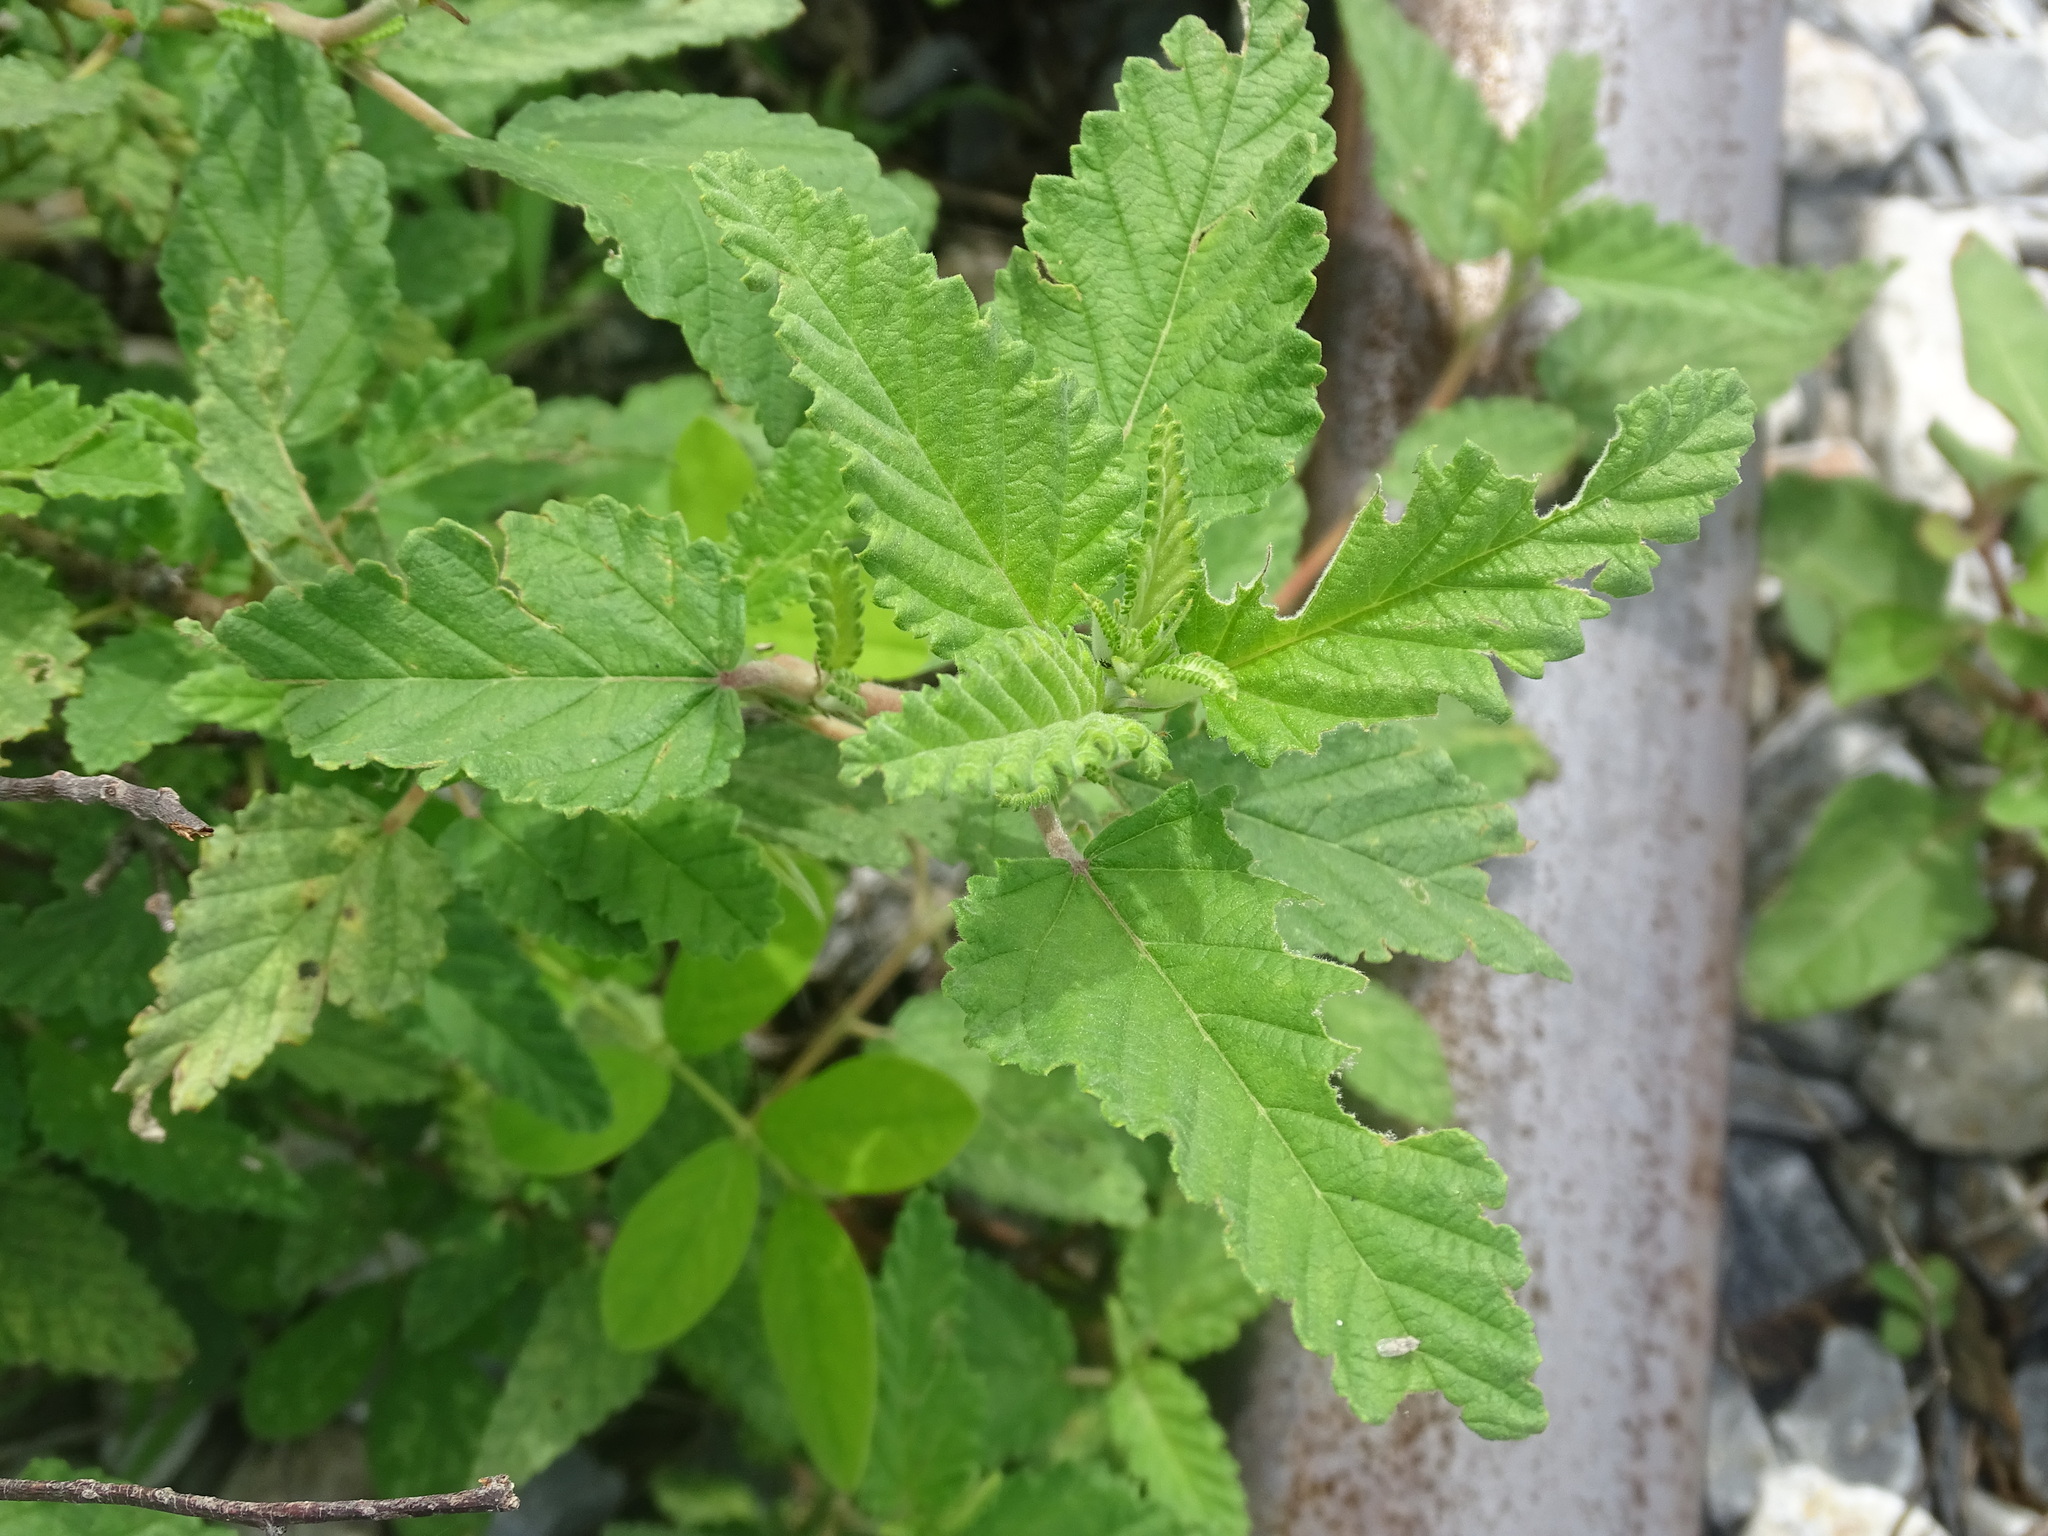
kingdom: Plantae
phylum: Tracheophyta
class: Magnoliopsida
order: Malvales
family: Malvaceae
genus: Melochia
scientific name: Melochia tomentosa
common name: Black torch
